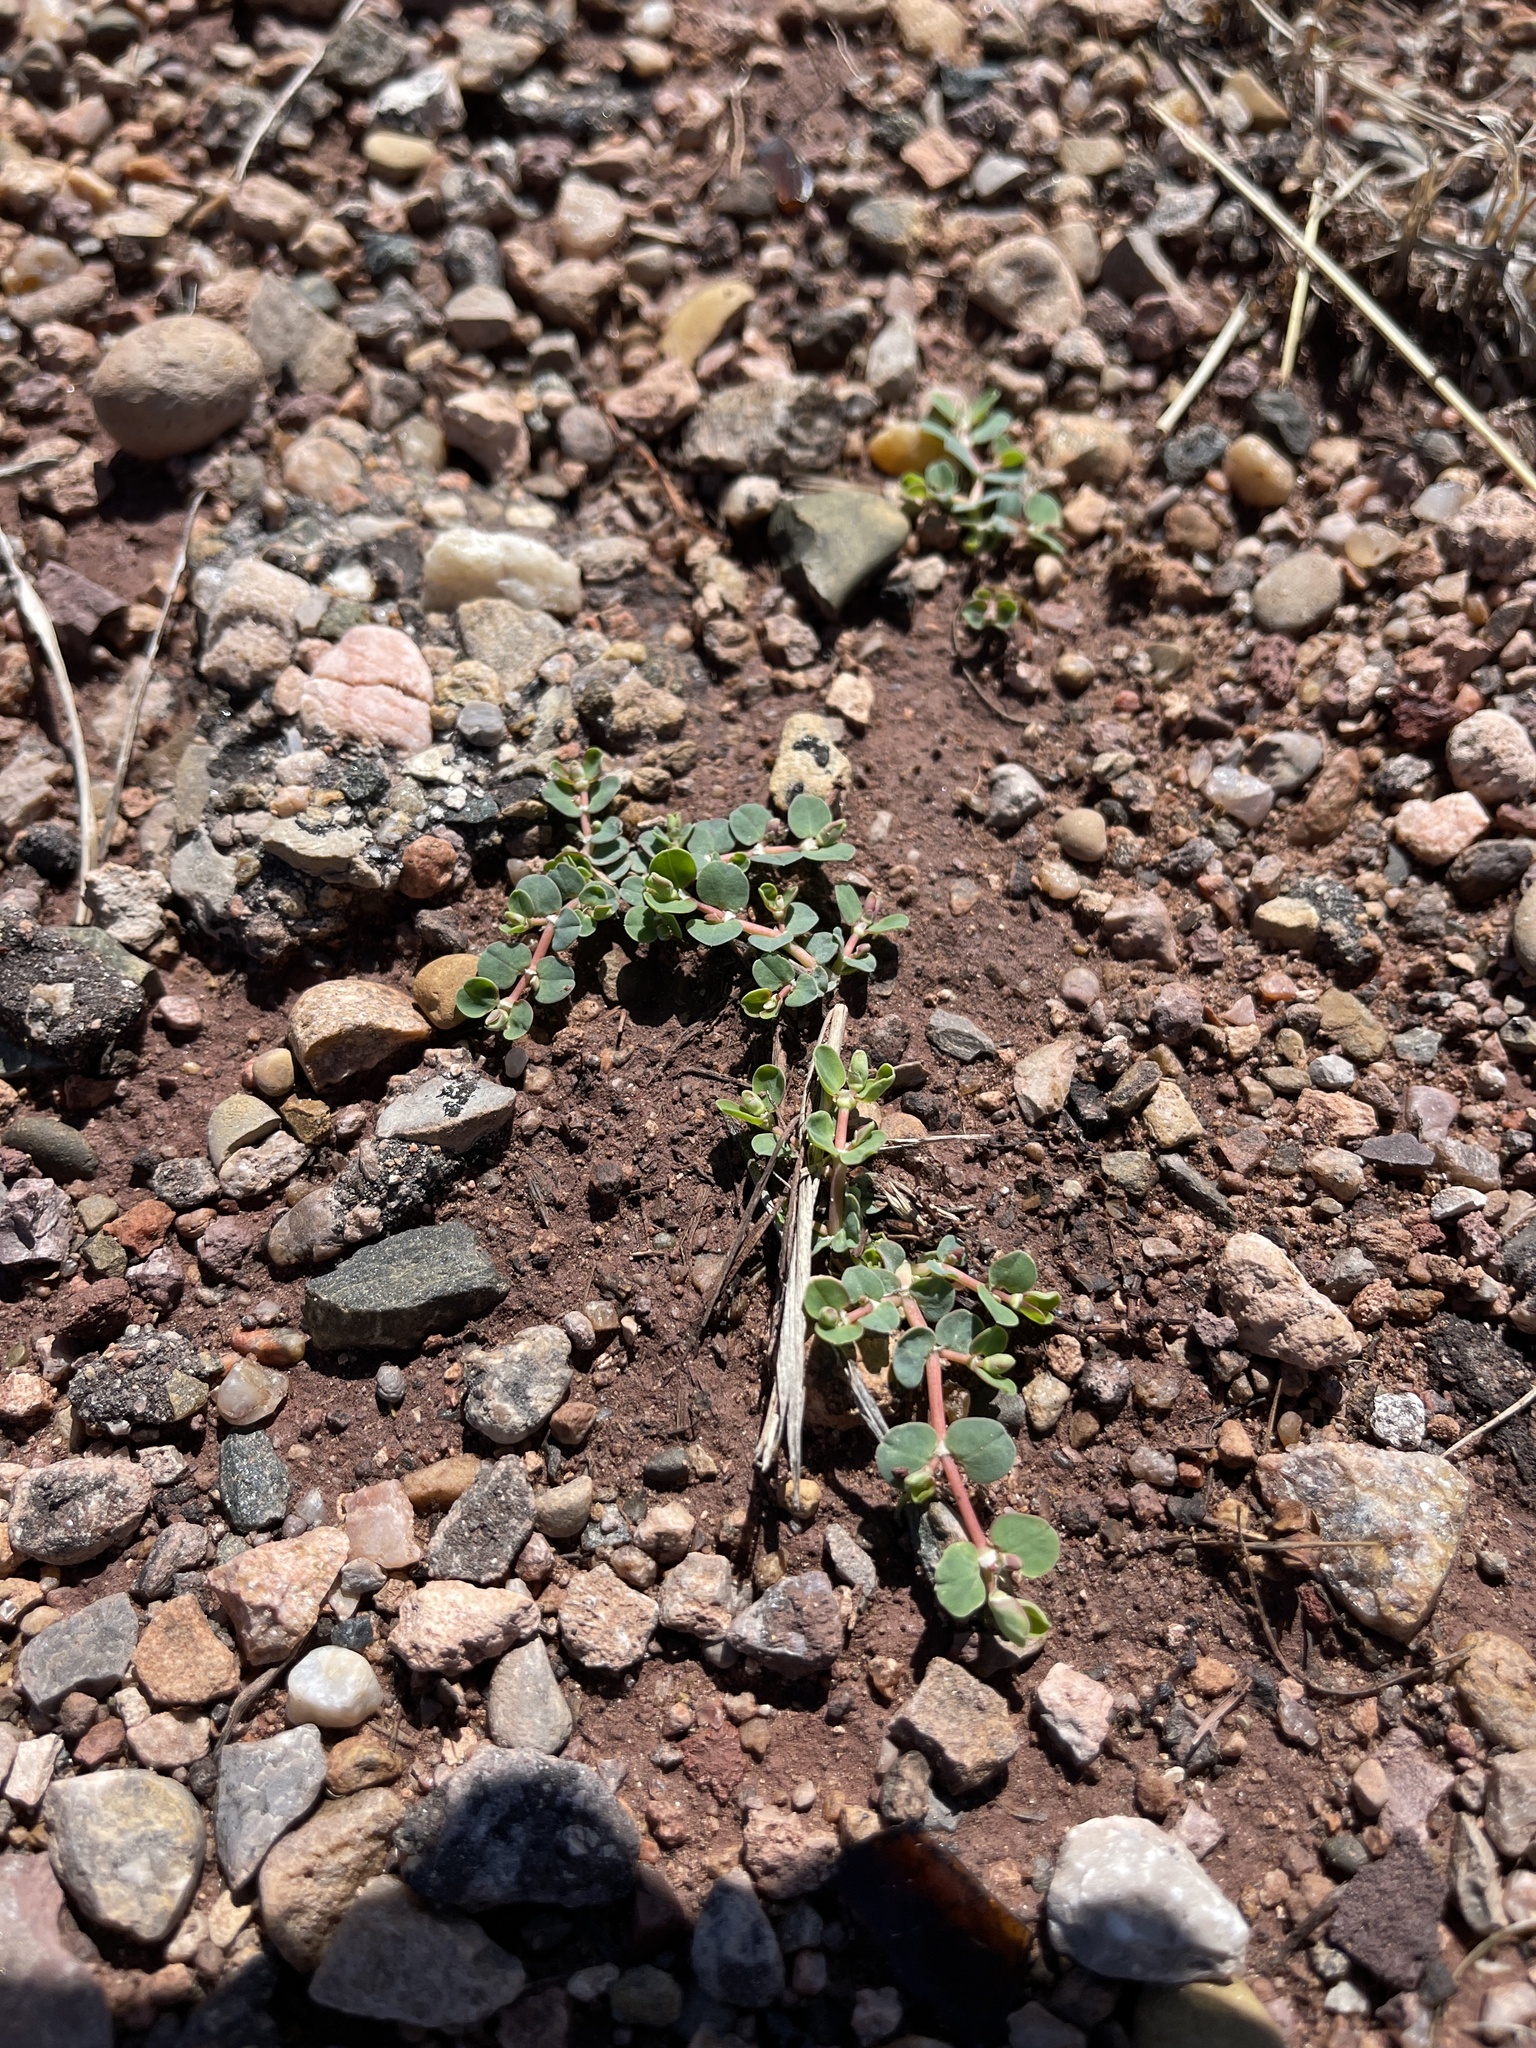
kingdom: Plantae
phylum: Tracheophyta
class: Magnoliopsida
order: Malpighiales
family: Euphorbiaceae
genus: Euphorbia
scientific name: Euphorbia serpens
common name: Matted sandmat
